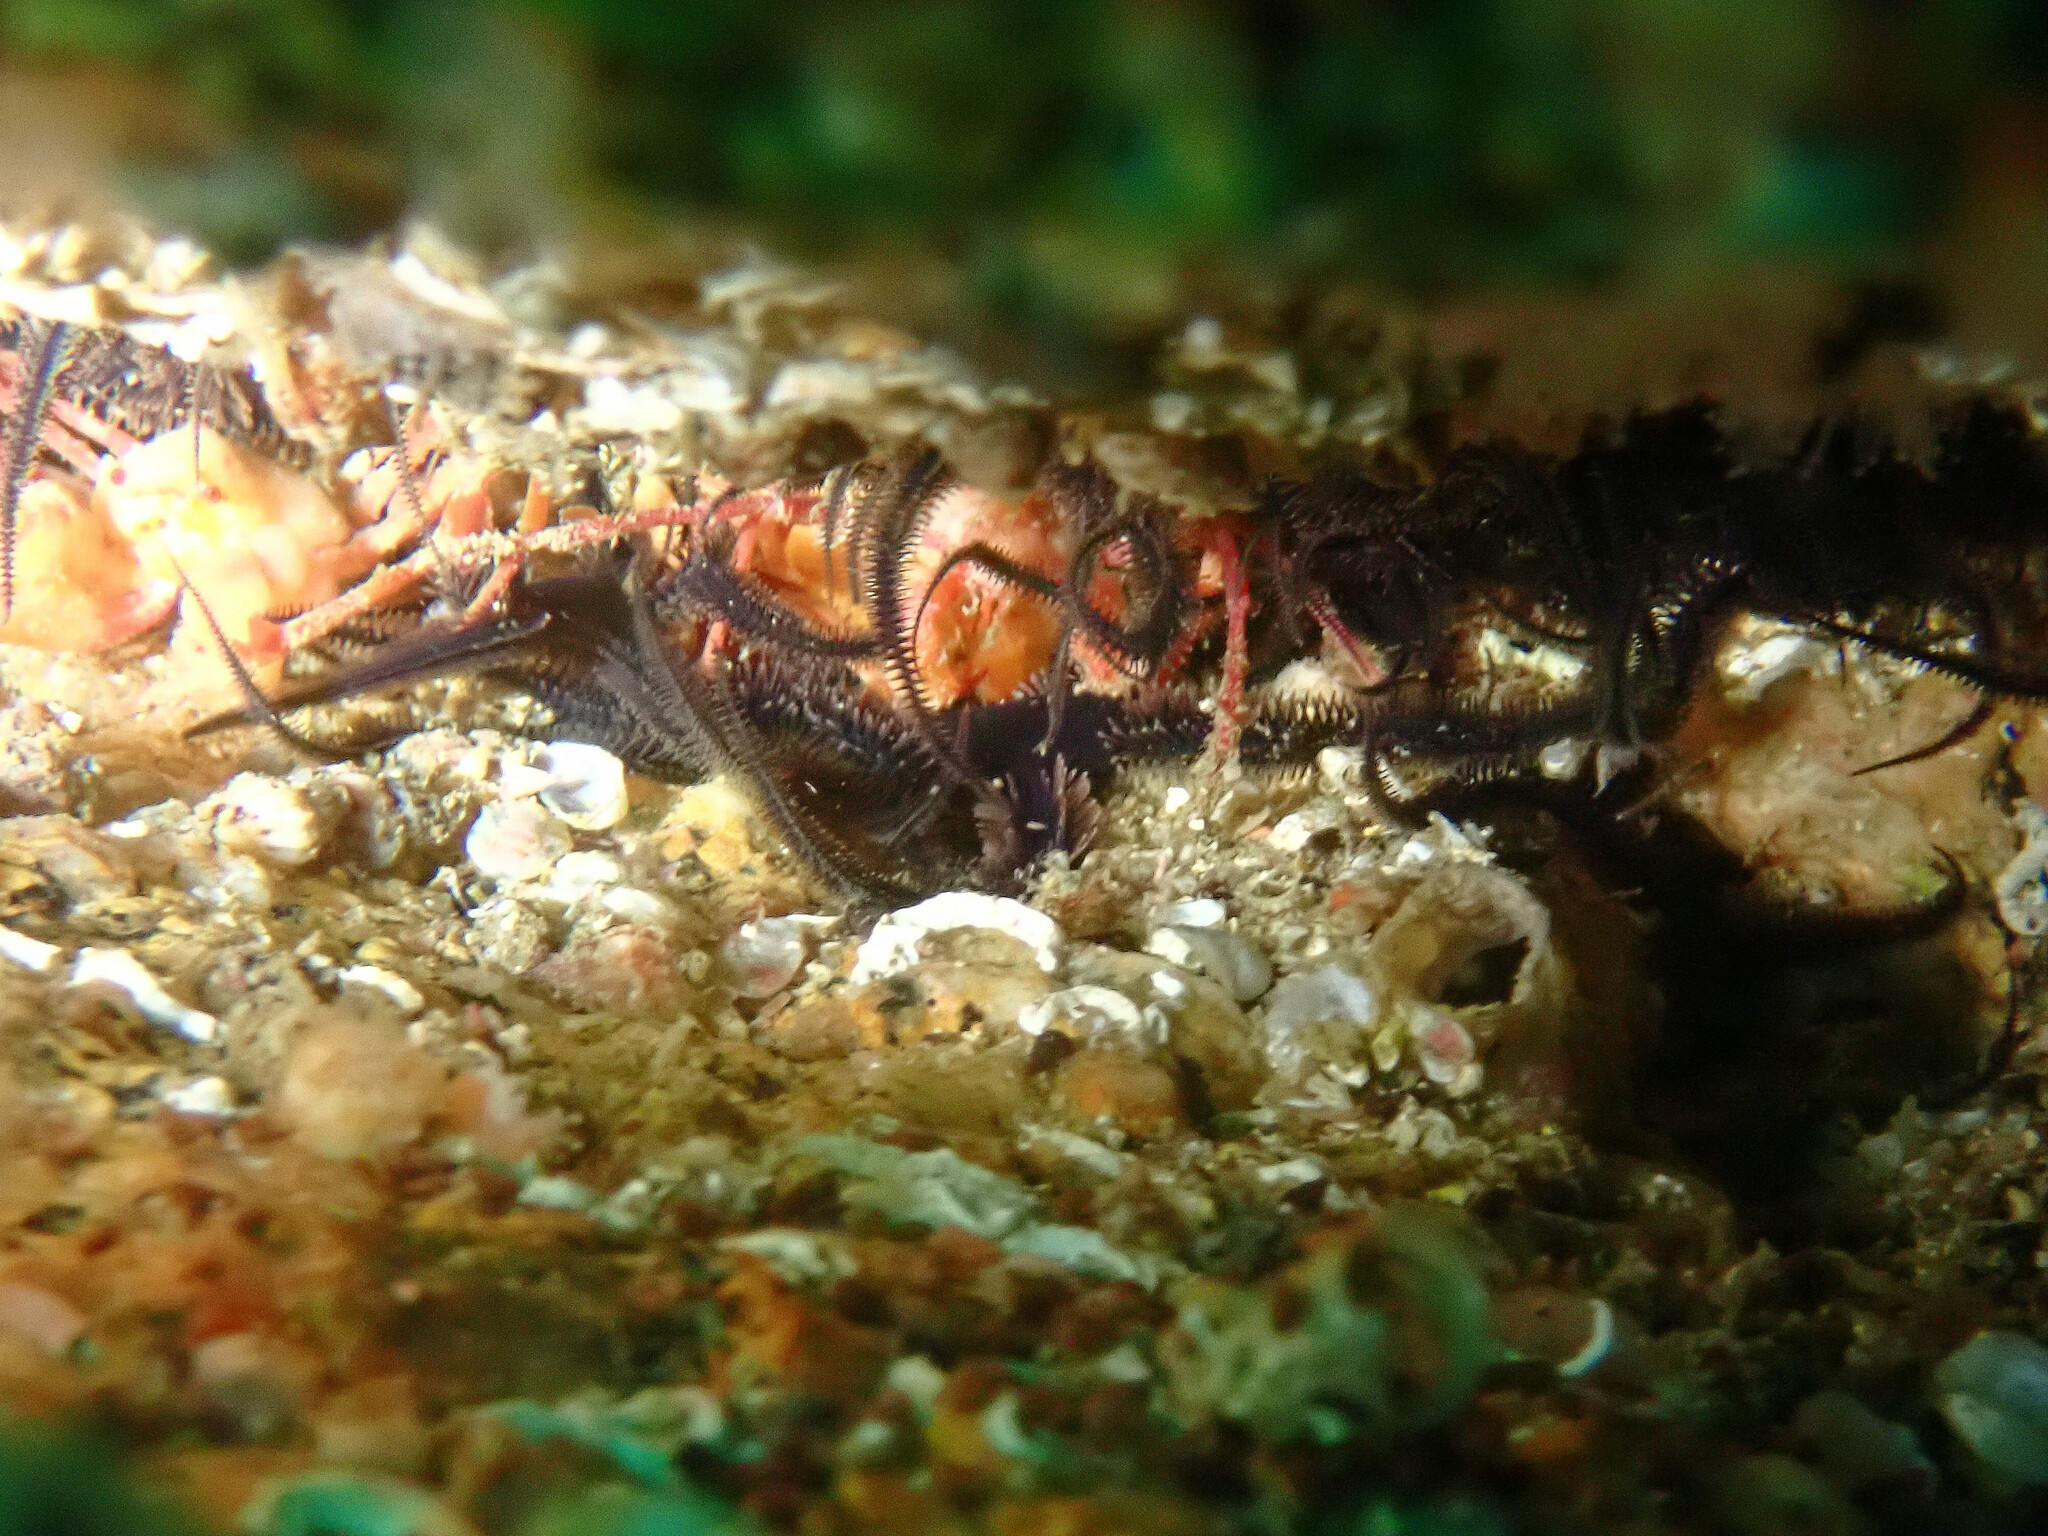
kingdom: Animalia
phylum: Echinodermata
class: Ophiuroidea
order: Ophiacanthida
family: Ophiotomidae
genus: Ophiocomina
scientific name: Ophiocomina nigra
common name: Black brittle star
